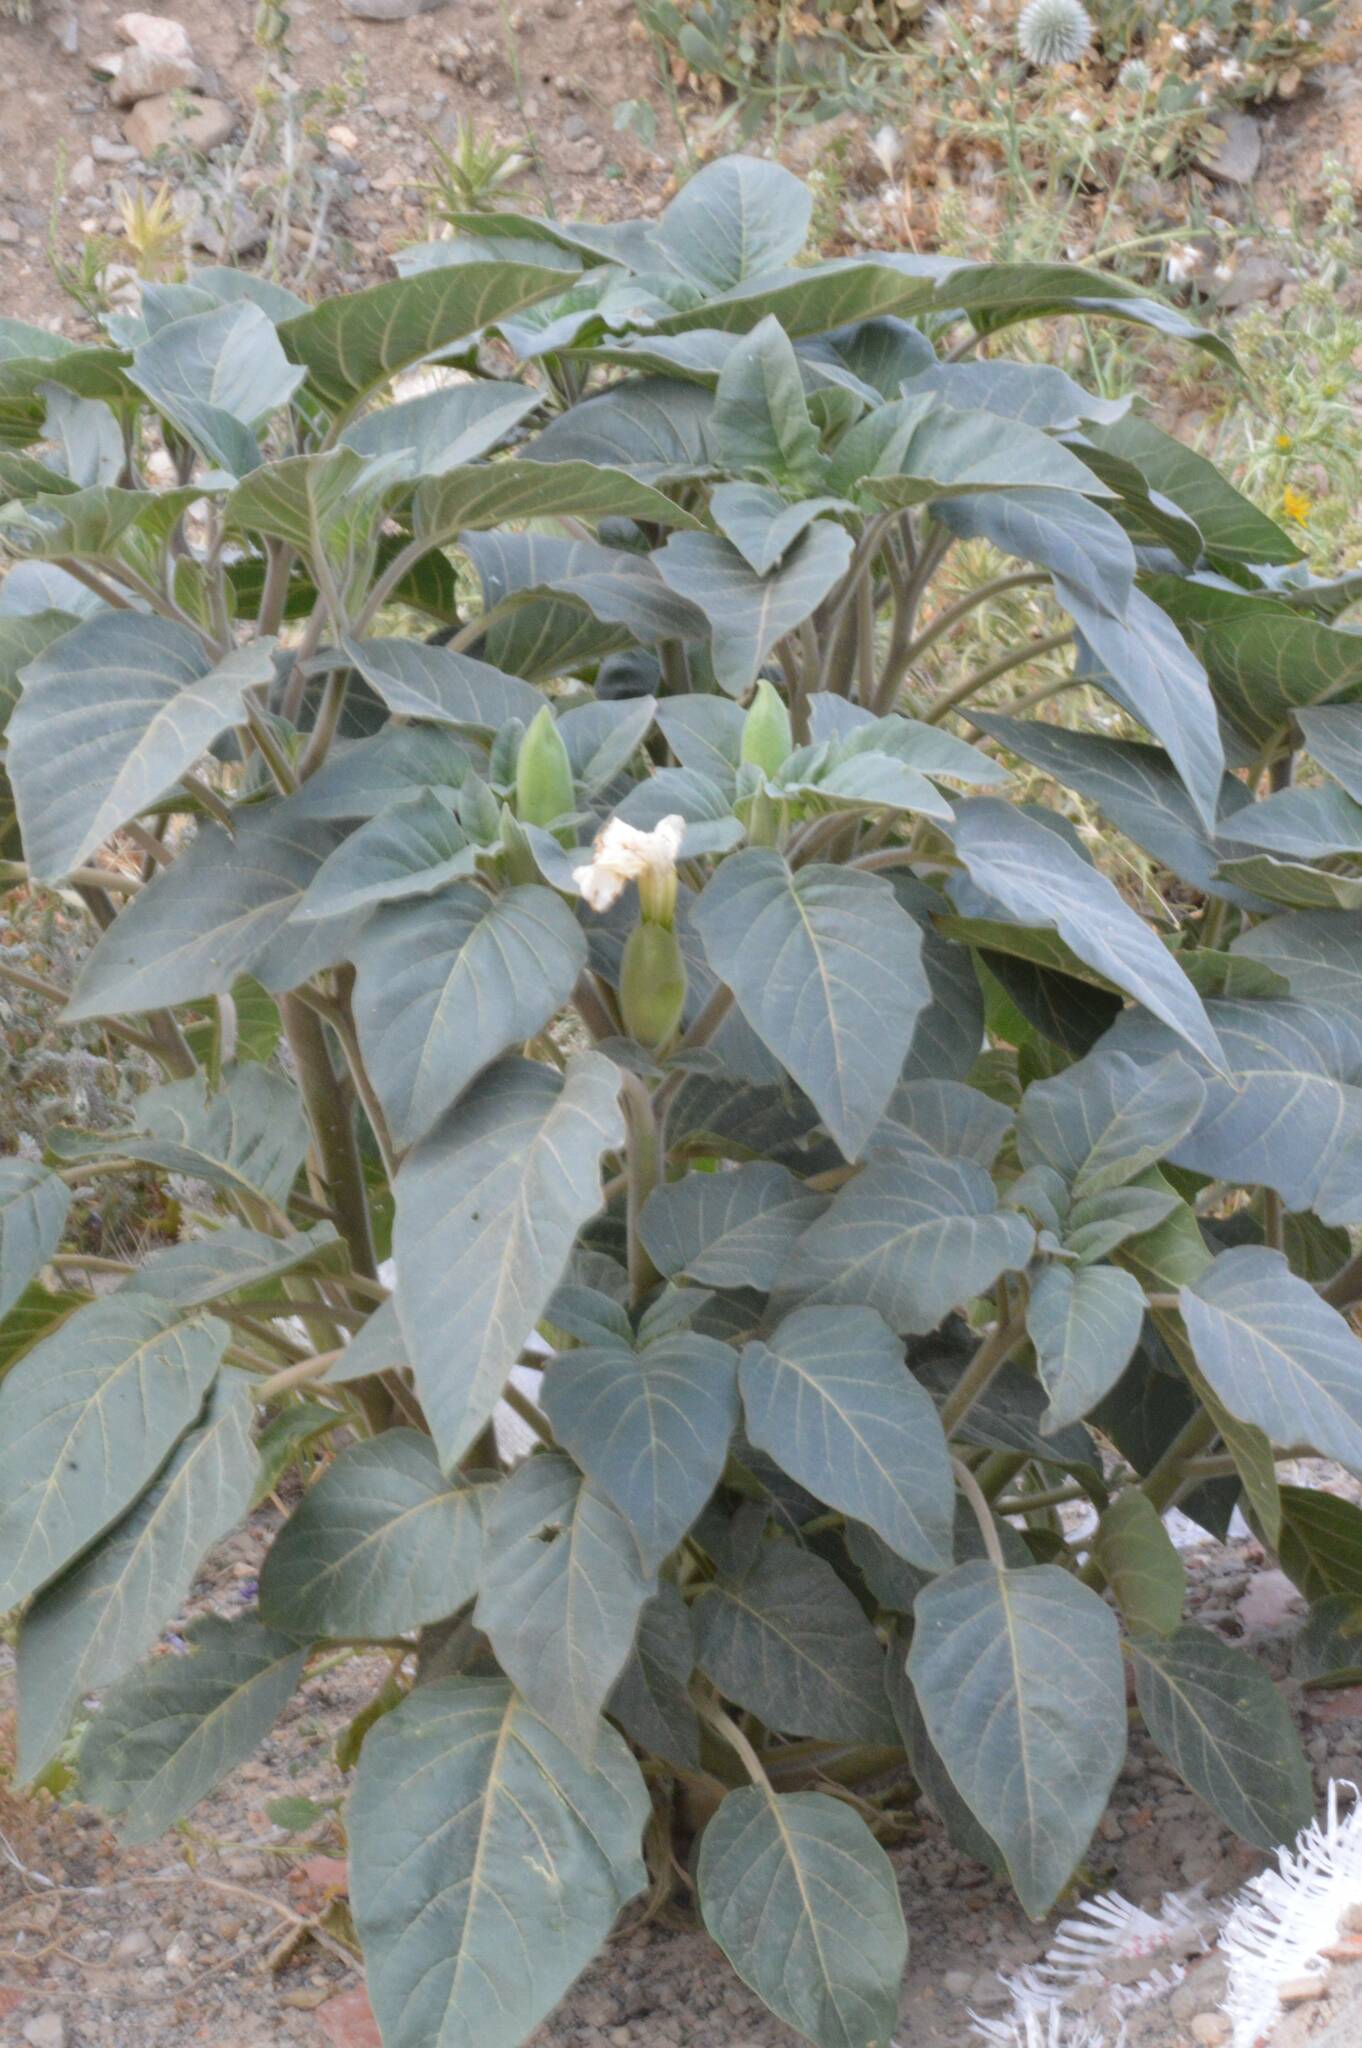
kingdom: Plantae
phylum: Tracheophyta
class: Magnoliopsida
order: Solanales
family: Solanaceae
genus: Datura
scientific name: Datura innoxia
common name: Downy thorn-apple
